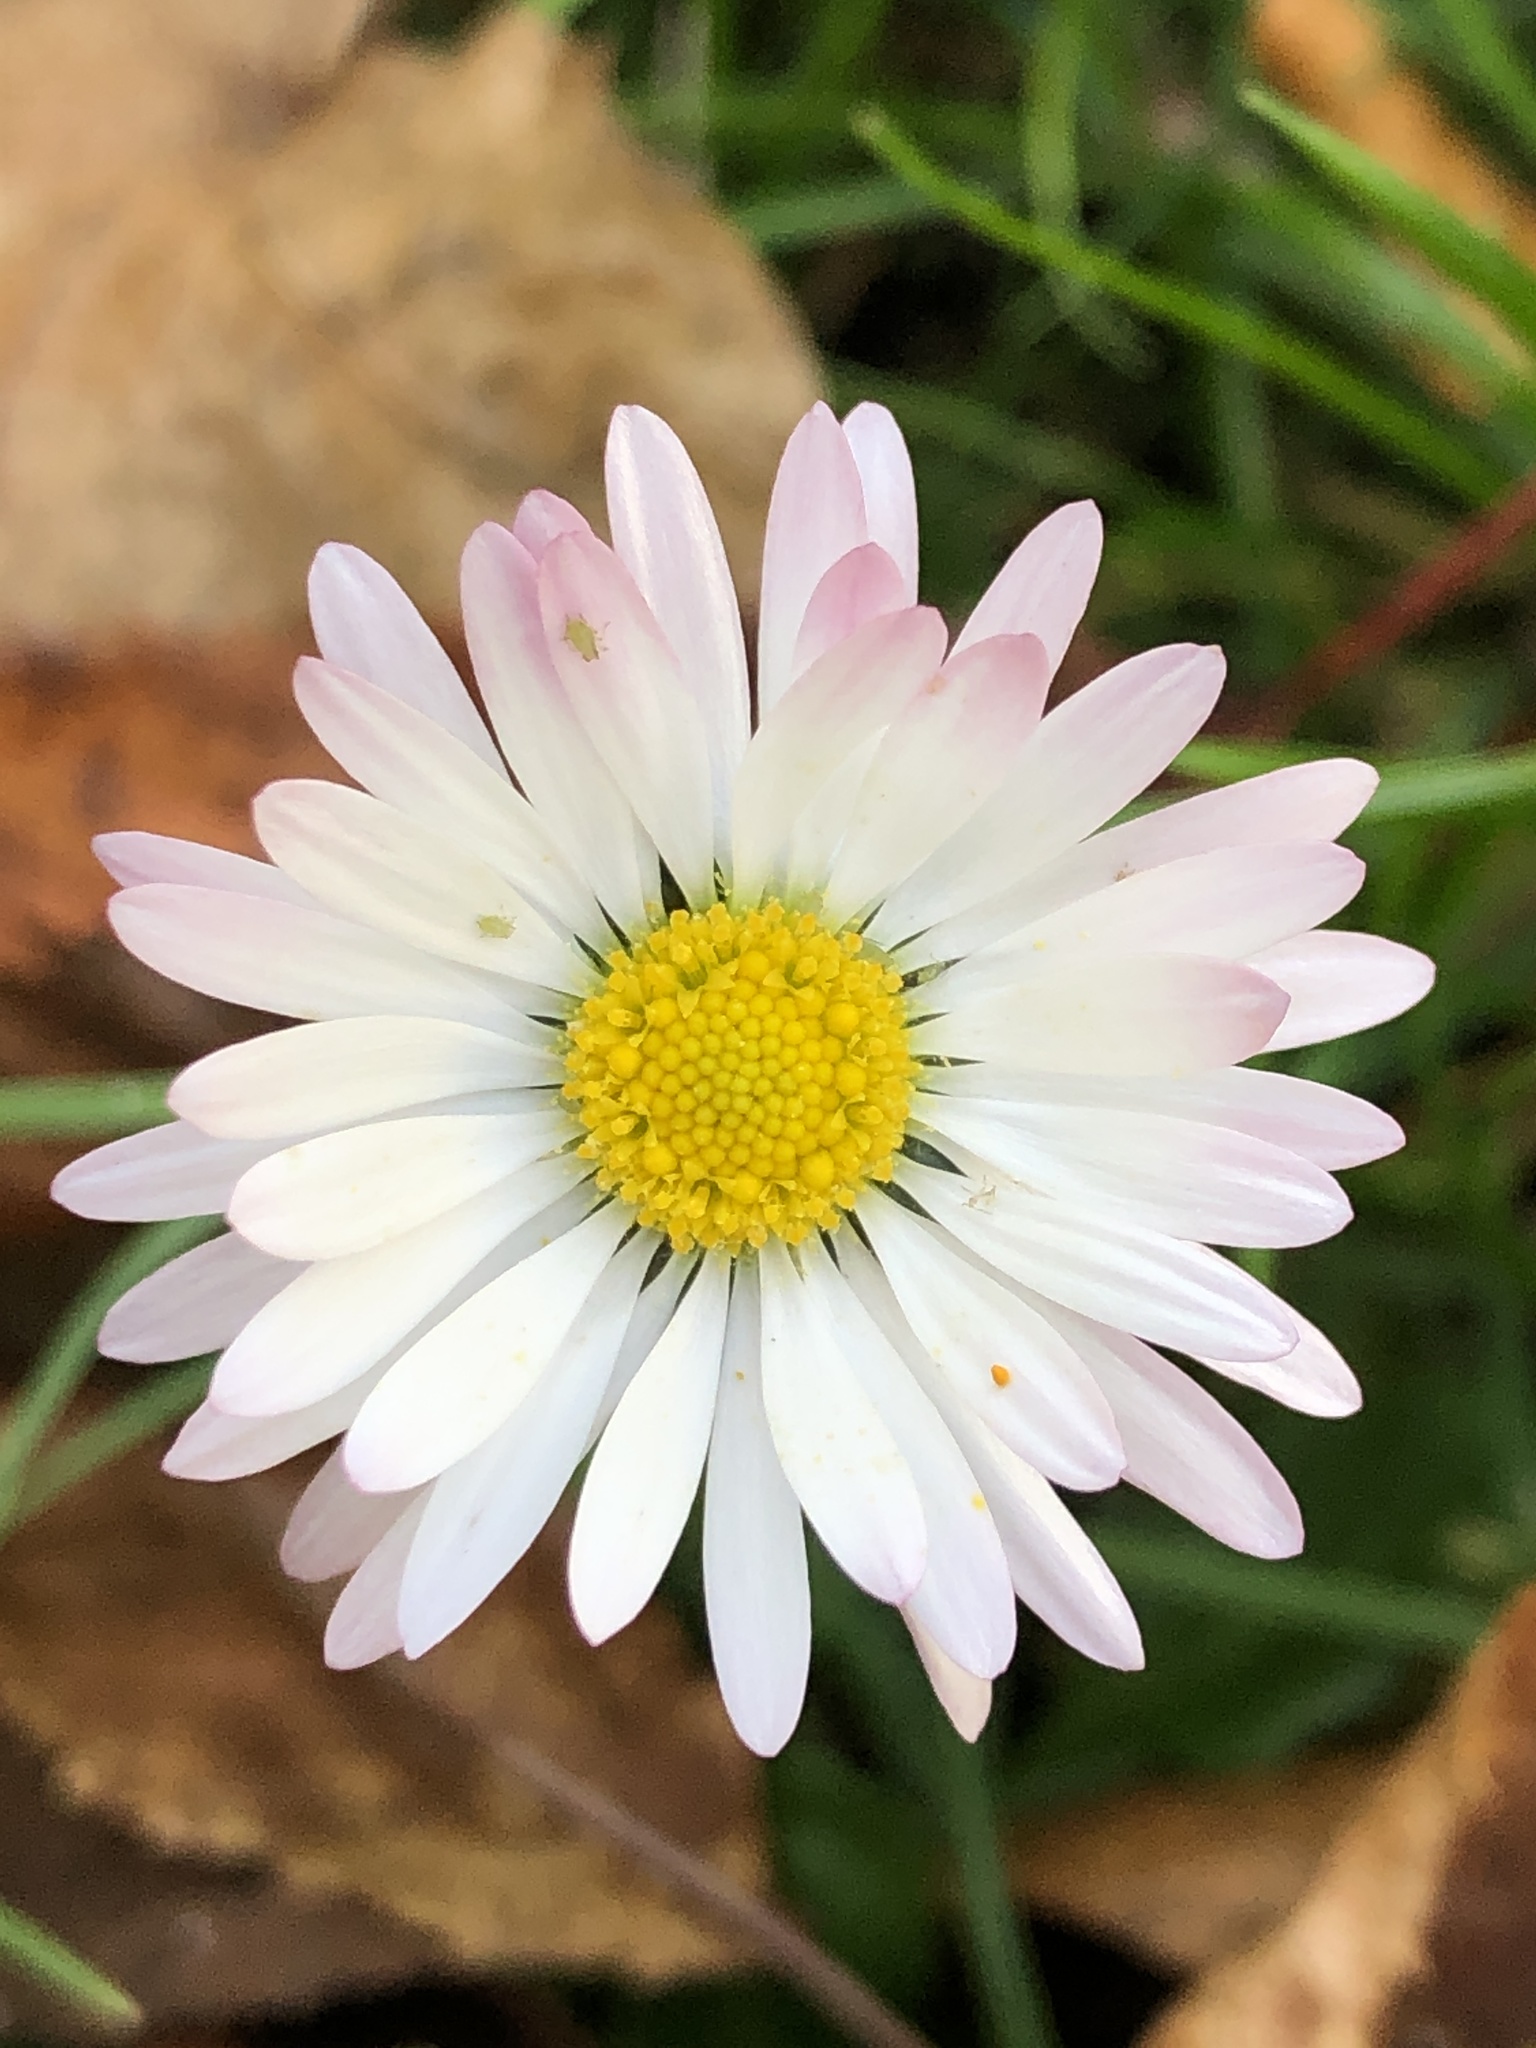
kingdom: Plantae
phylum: Tracheophyta
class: Magnoliopsida
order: Asterales
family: Asteraceae
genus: Bellis
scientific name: Bellis perennis
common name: Lawndaisy
